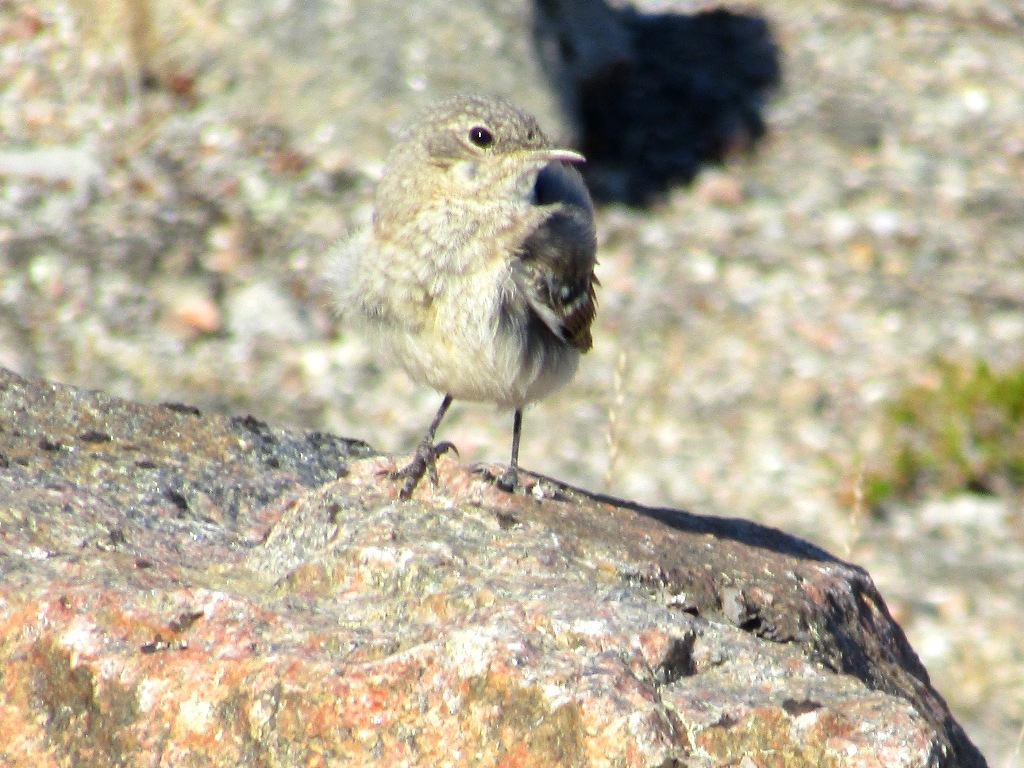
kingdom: Animalia
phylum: Chordata
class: Aves
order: Passeriformes
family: Muscicapidae
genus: Oenanthe
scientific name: Oenanthe oenanthe
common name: Northern wheatear
